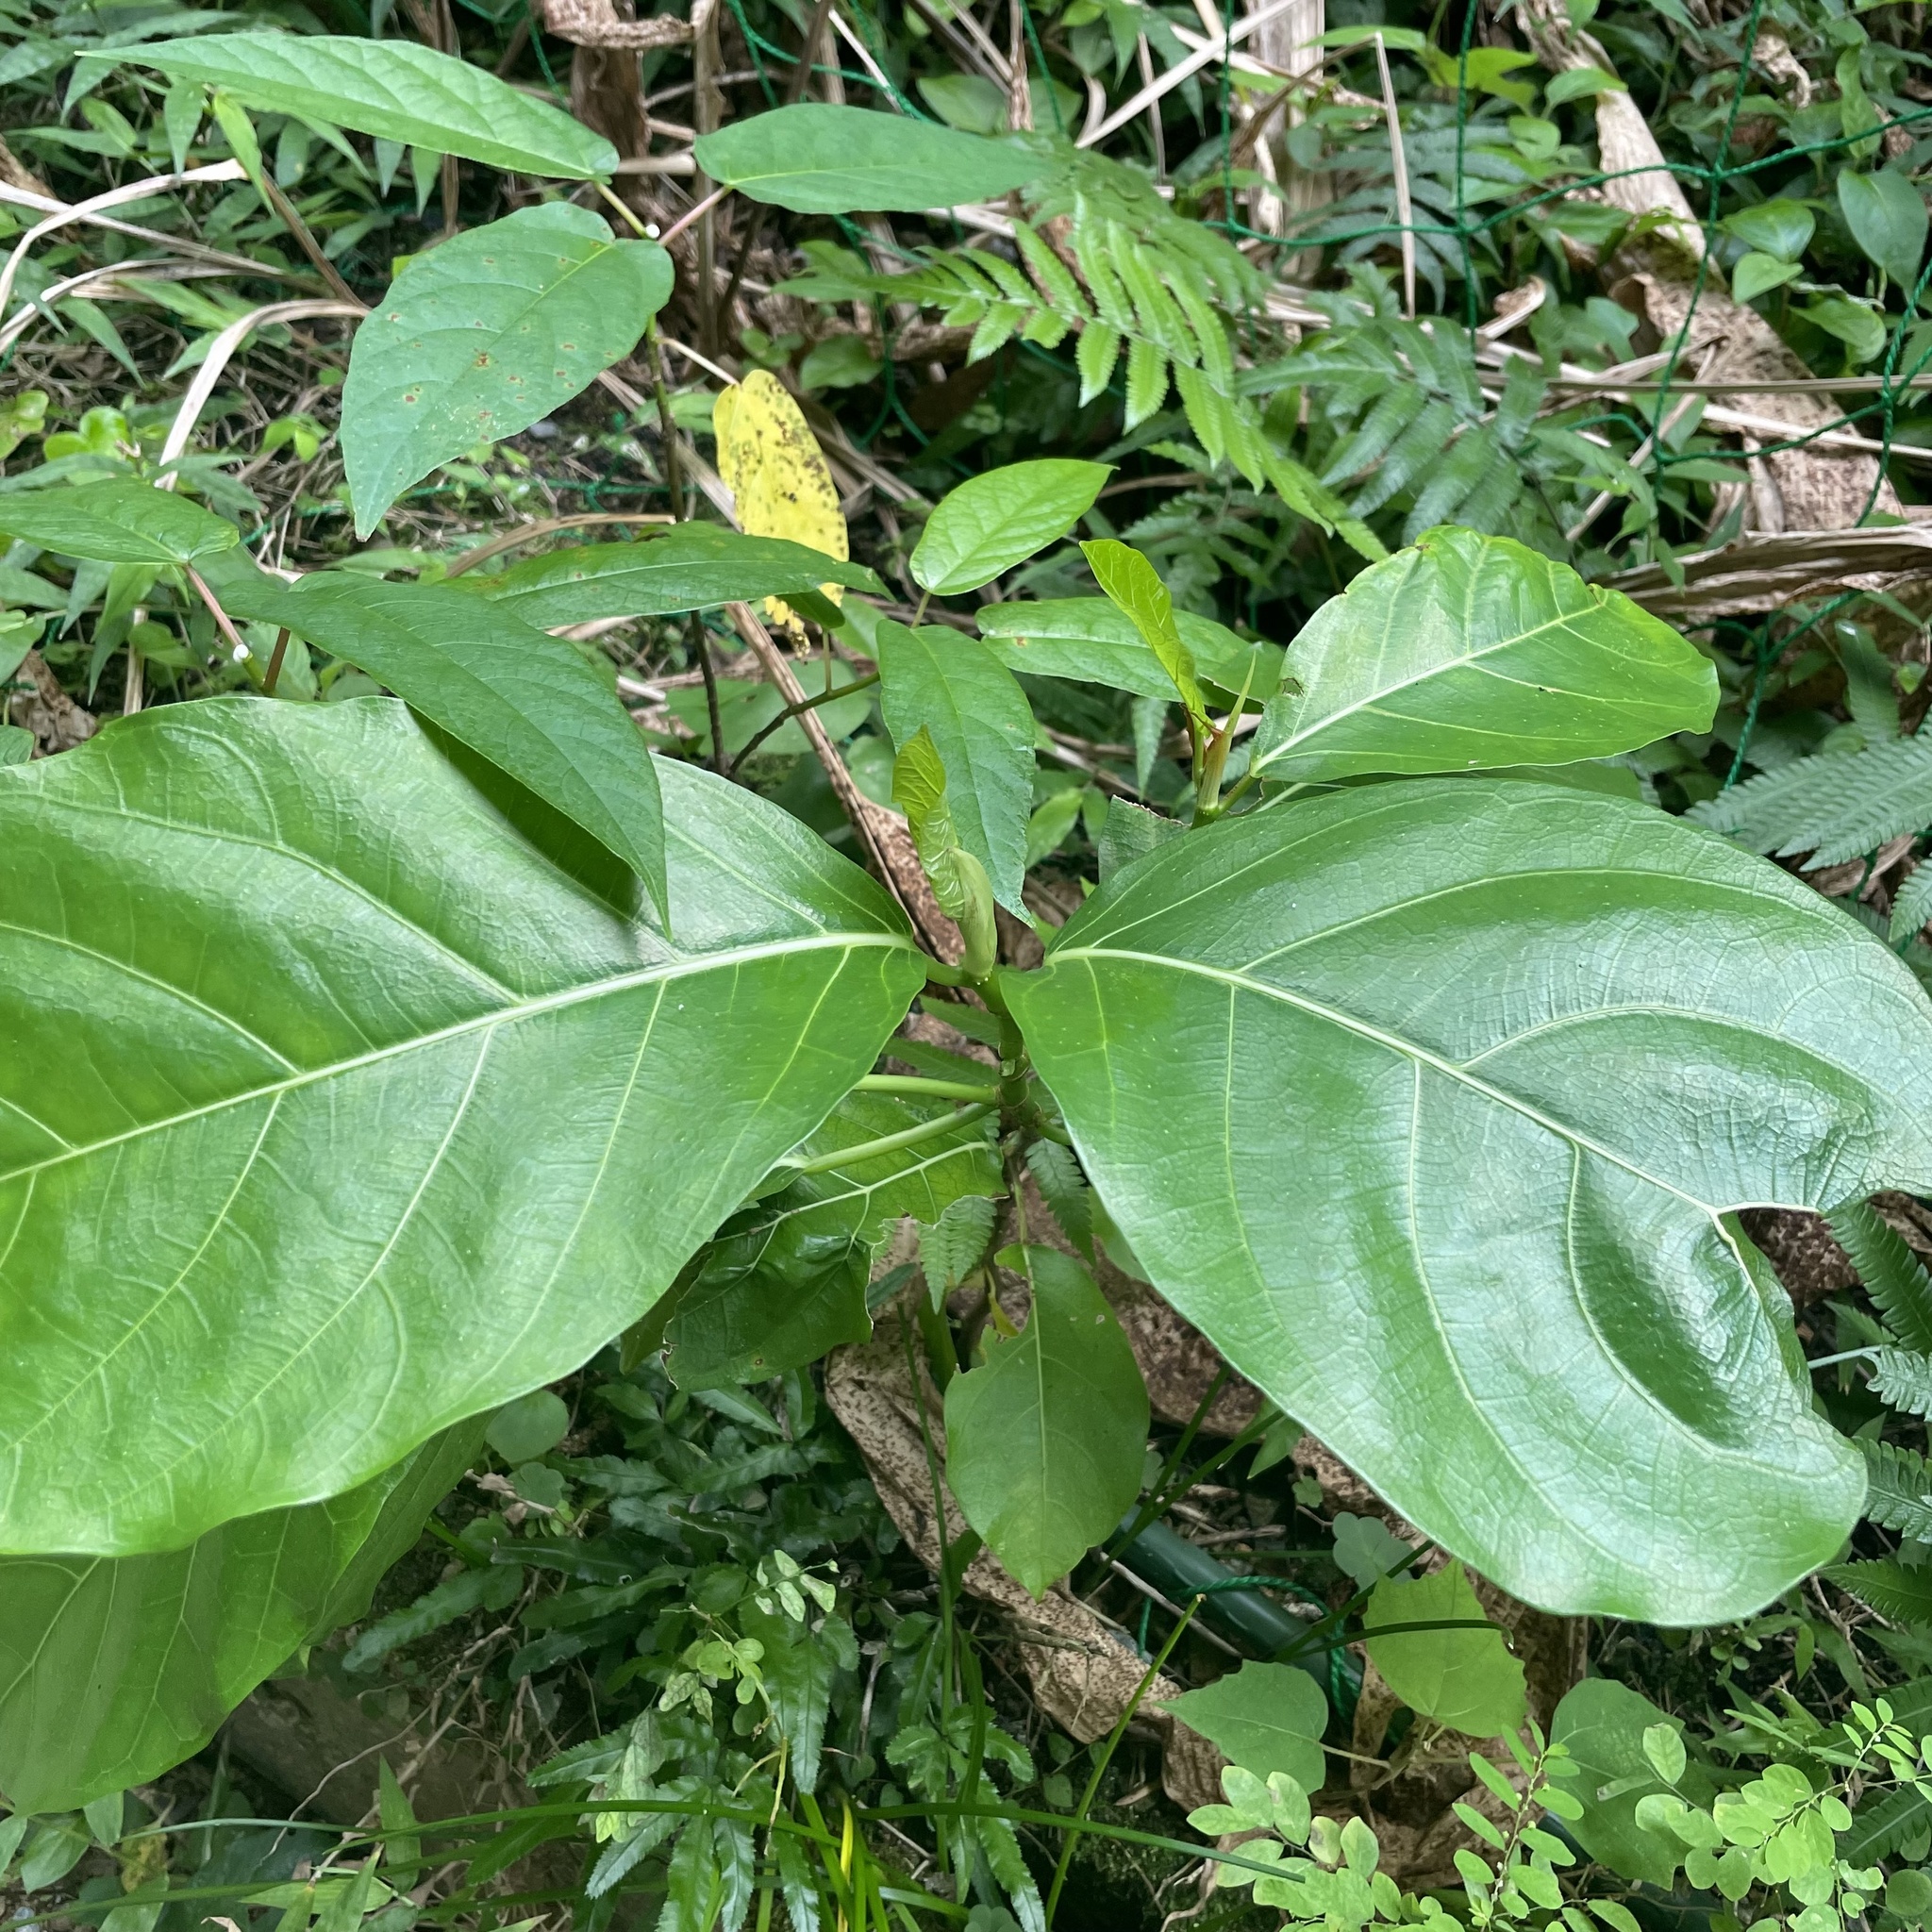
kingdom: Plantae
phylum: Tracheophyta
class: Magnoliopsida
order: Rosales
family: Moraceae
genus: Ficus
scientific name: Ficus septica
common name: Septic fig
